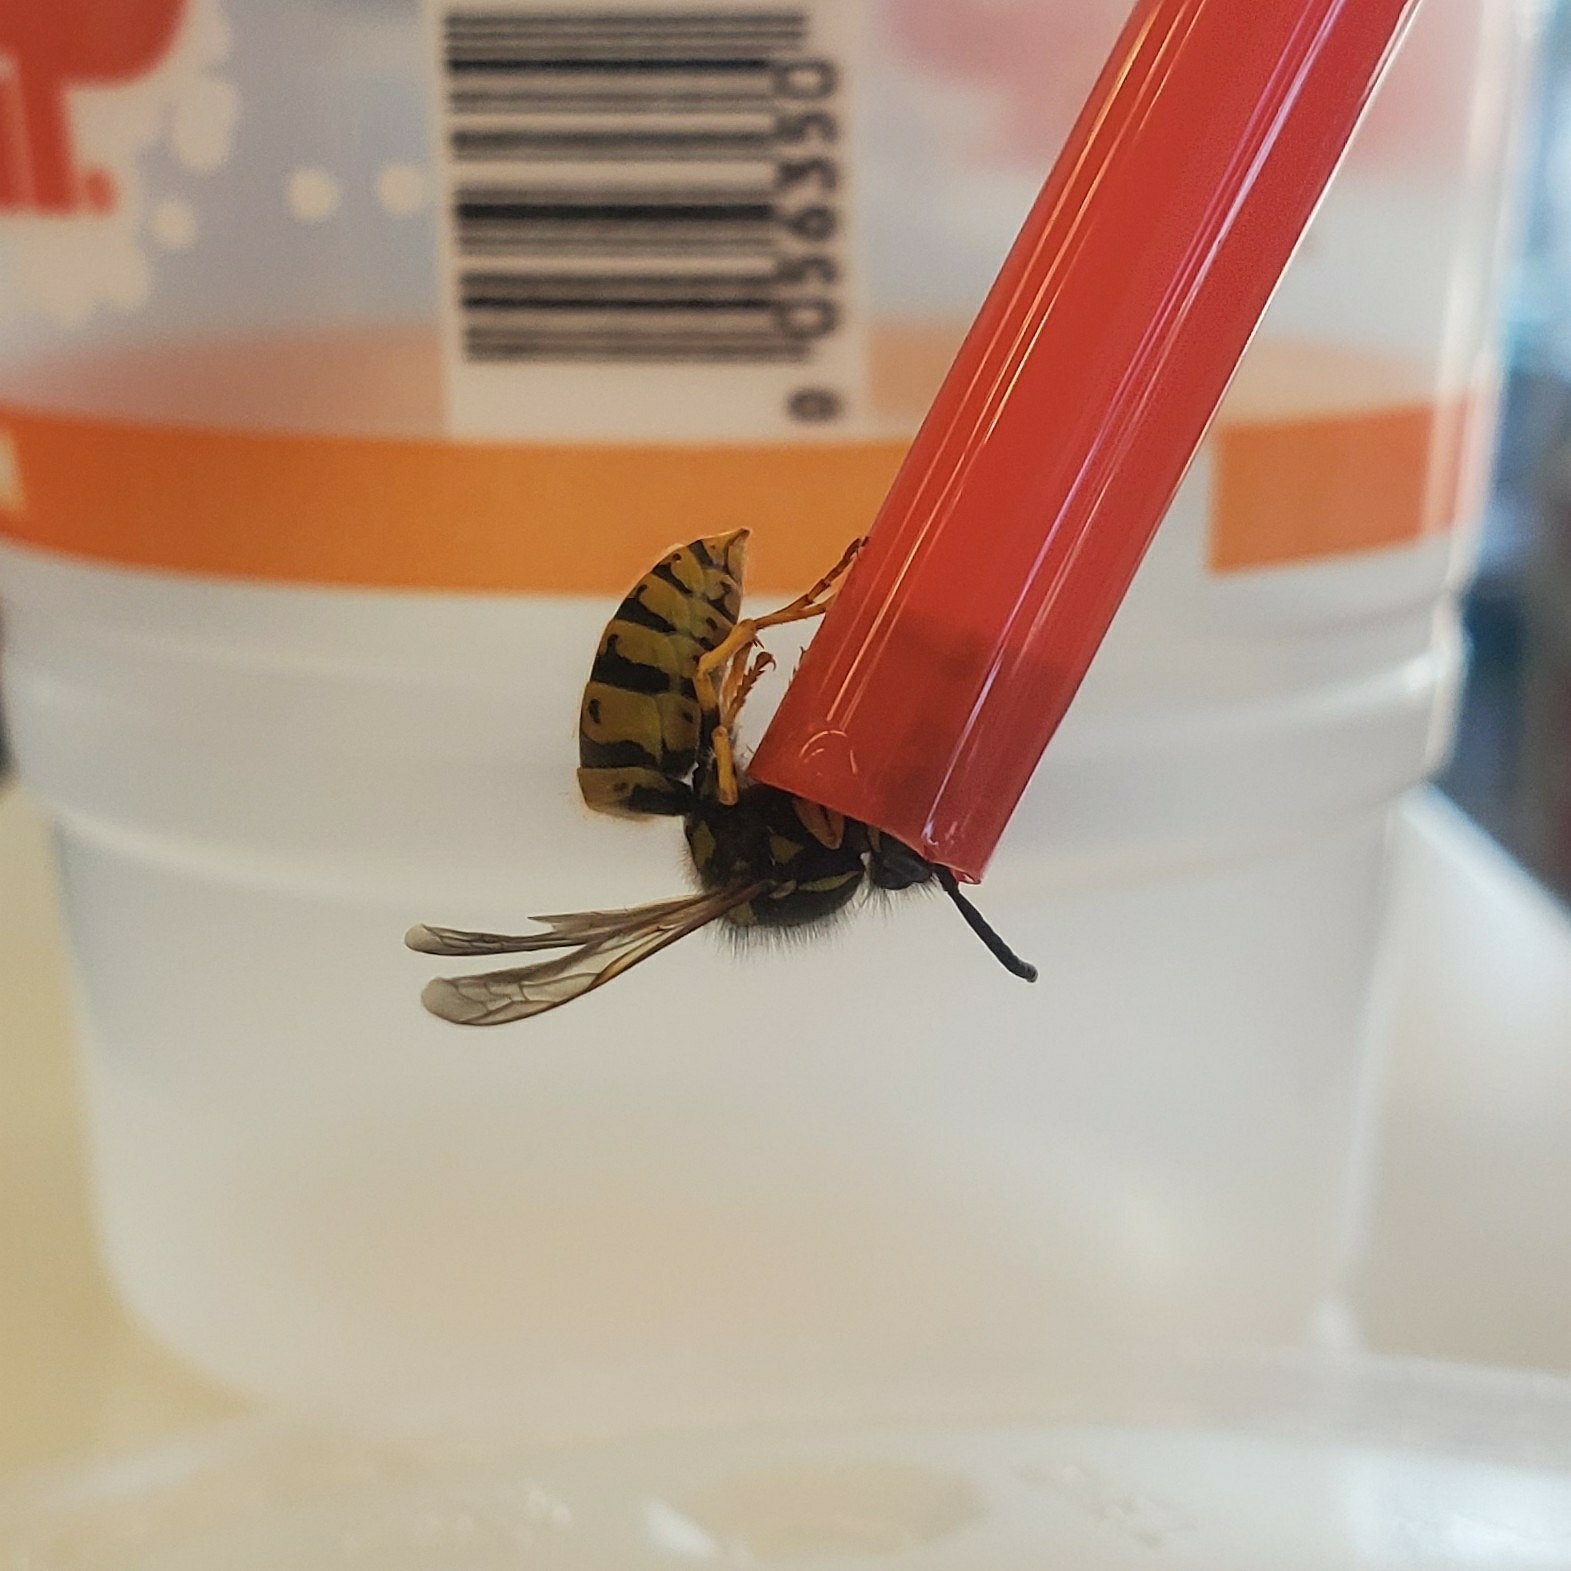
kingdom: Animalia
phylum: Arthropoda
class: Insecta
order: Hymenoptera
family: Vespidae
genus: Vespula
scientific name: Vespula germanica
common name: German wasp
